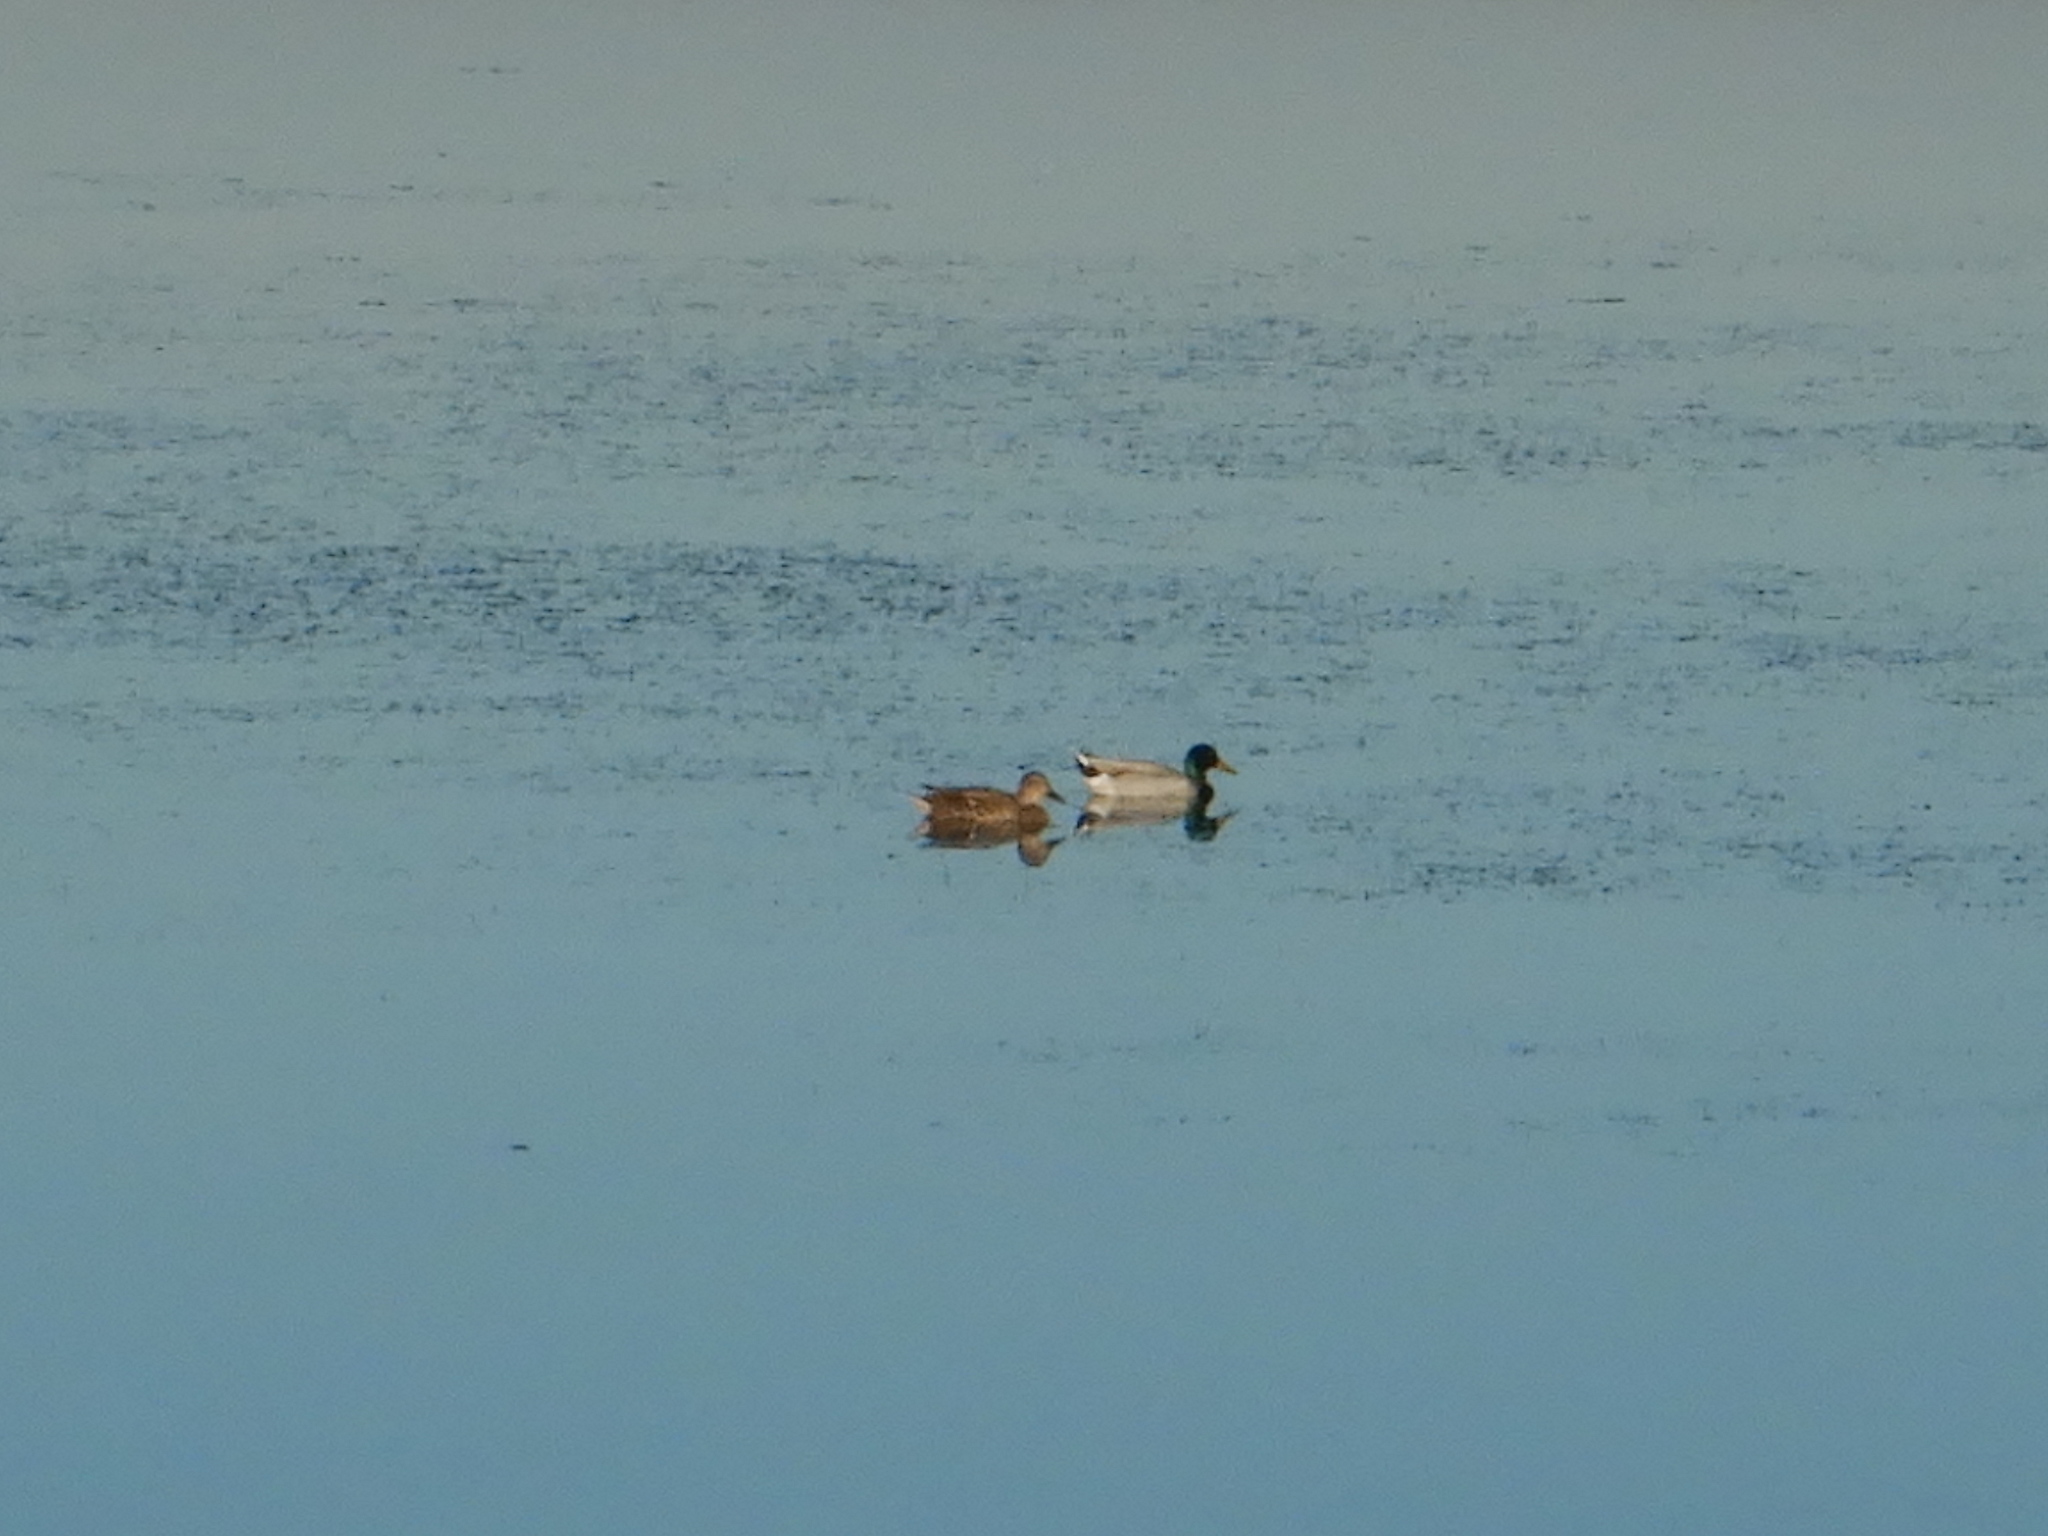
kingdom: Animalia
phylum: Chordata
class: Aves
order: Anseriformes
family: Anatidae
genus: Anas
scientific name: Anas platyrhynchos
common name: Mallard
